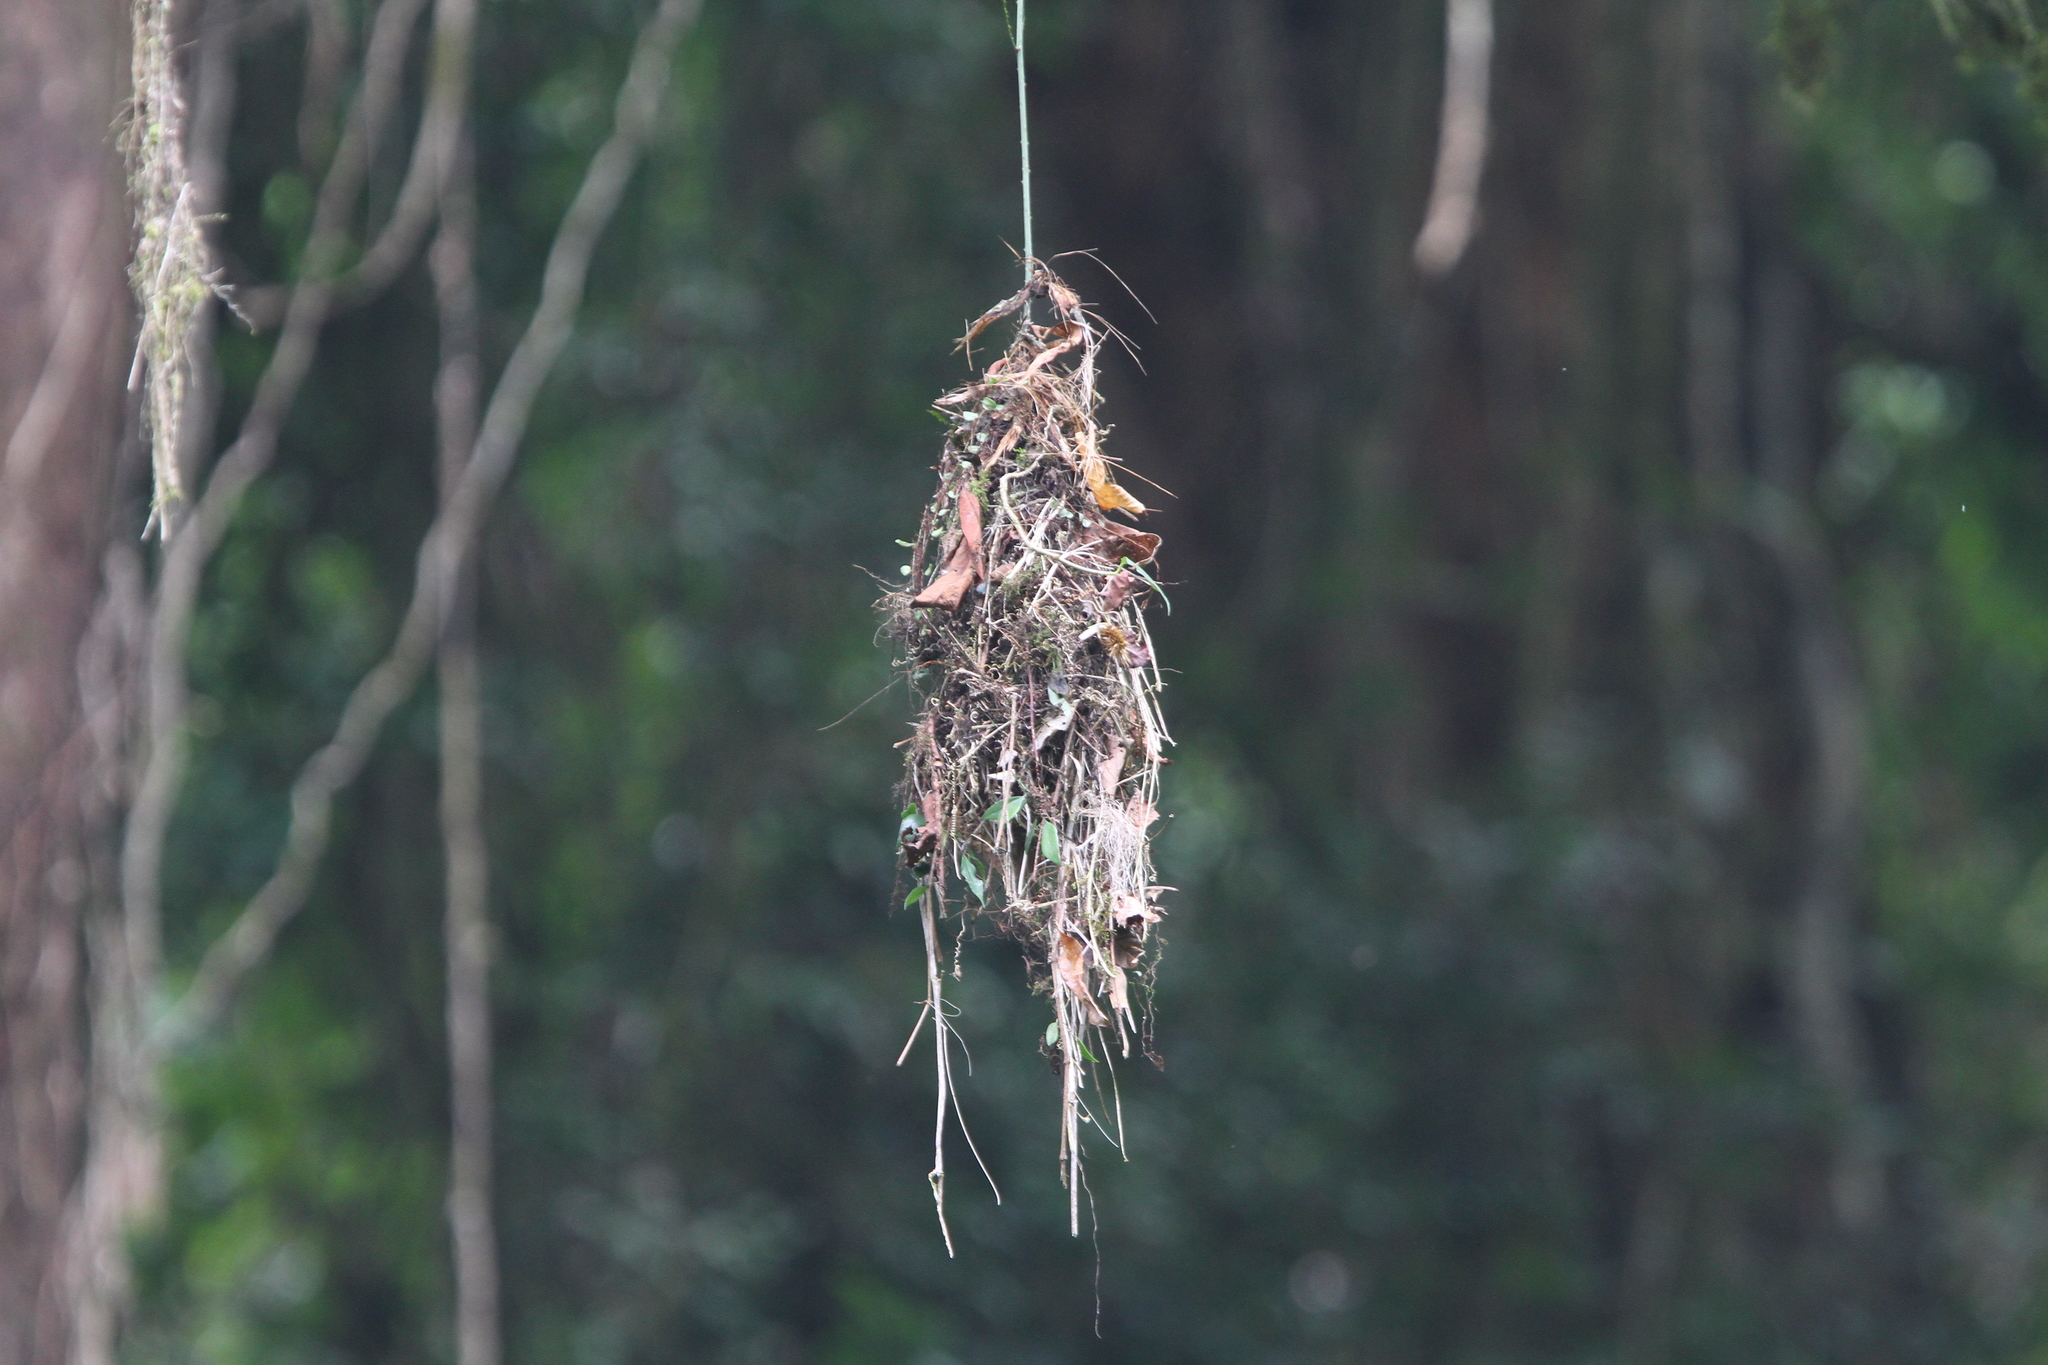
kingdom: Animalia
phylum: Chordata
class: Aves
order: Passeriformes
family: Eurylaimidae
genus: Psarisomus
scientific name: Psarisomus dalhousiae
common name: Long-tailed broadbill
